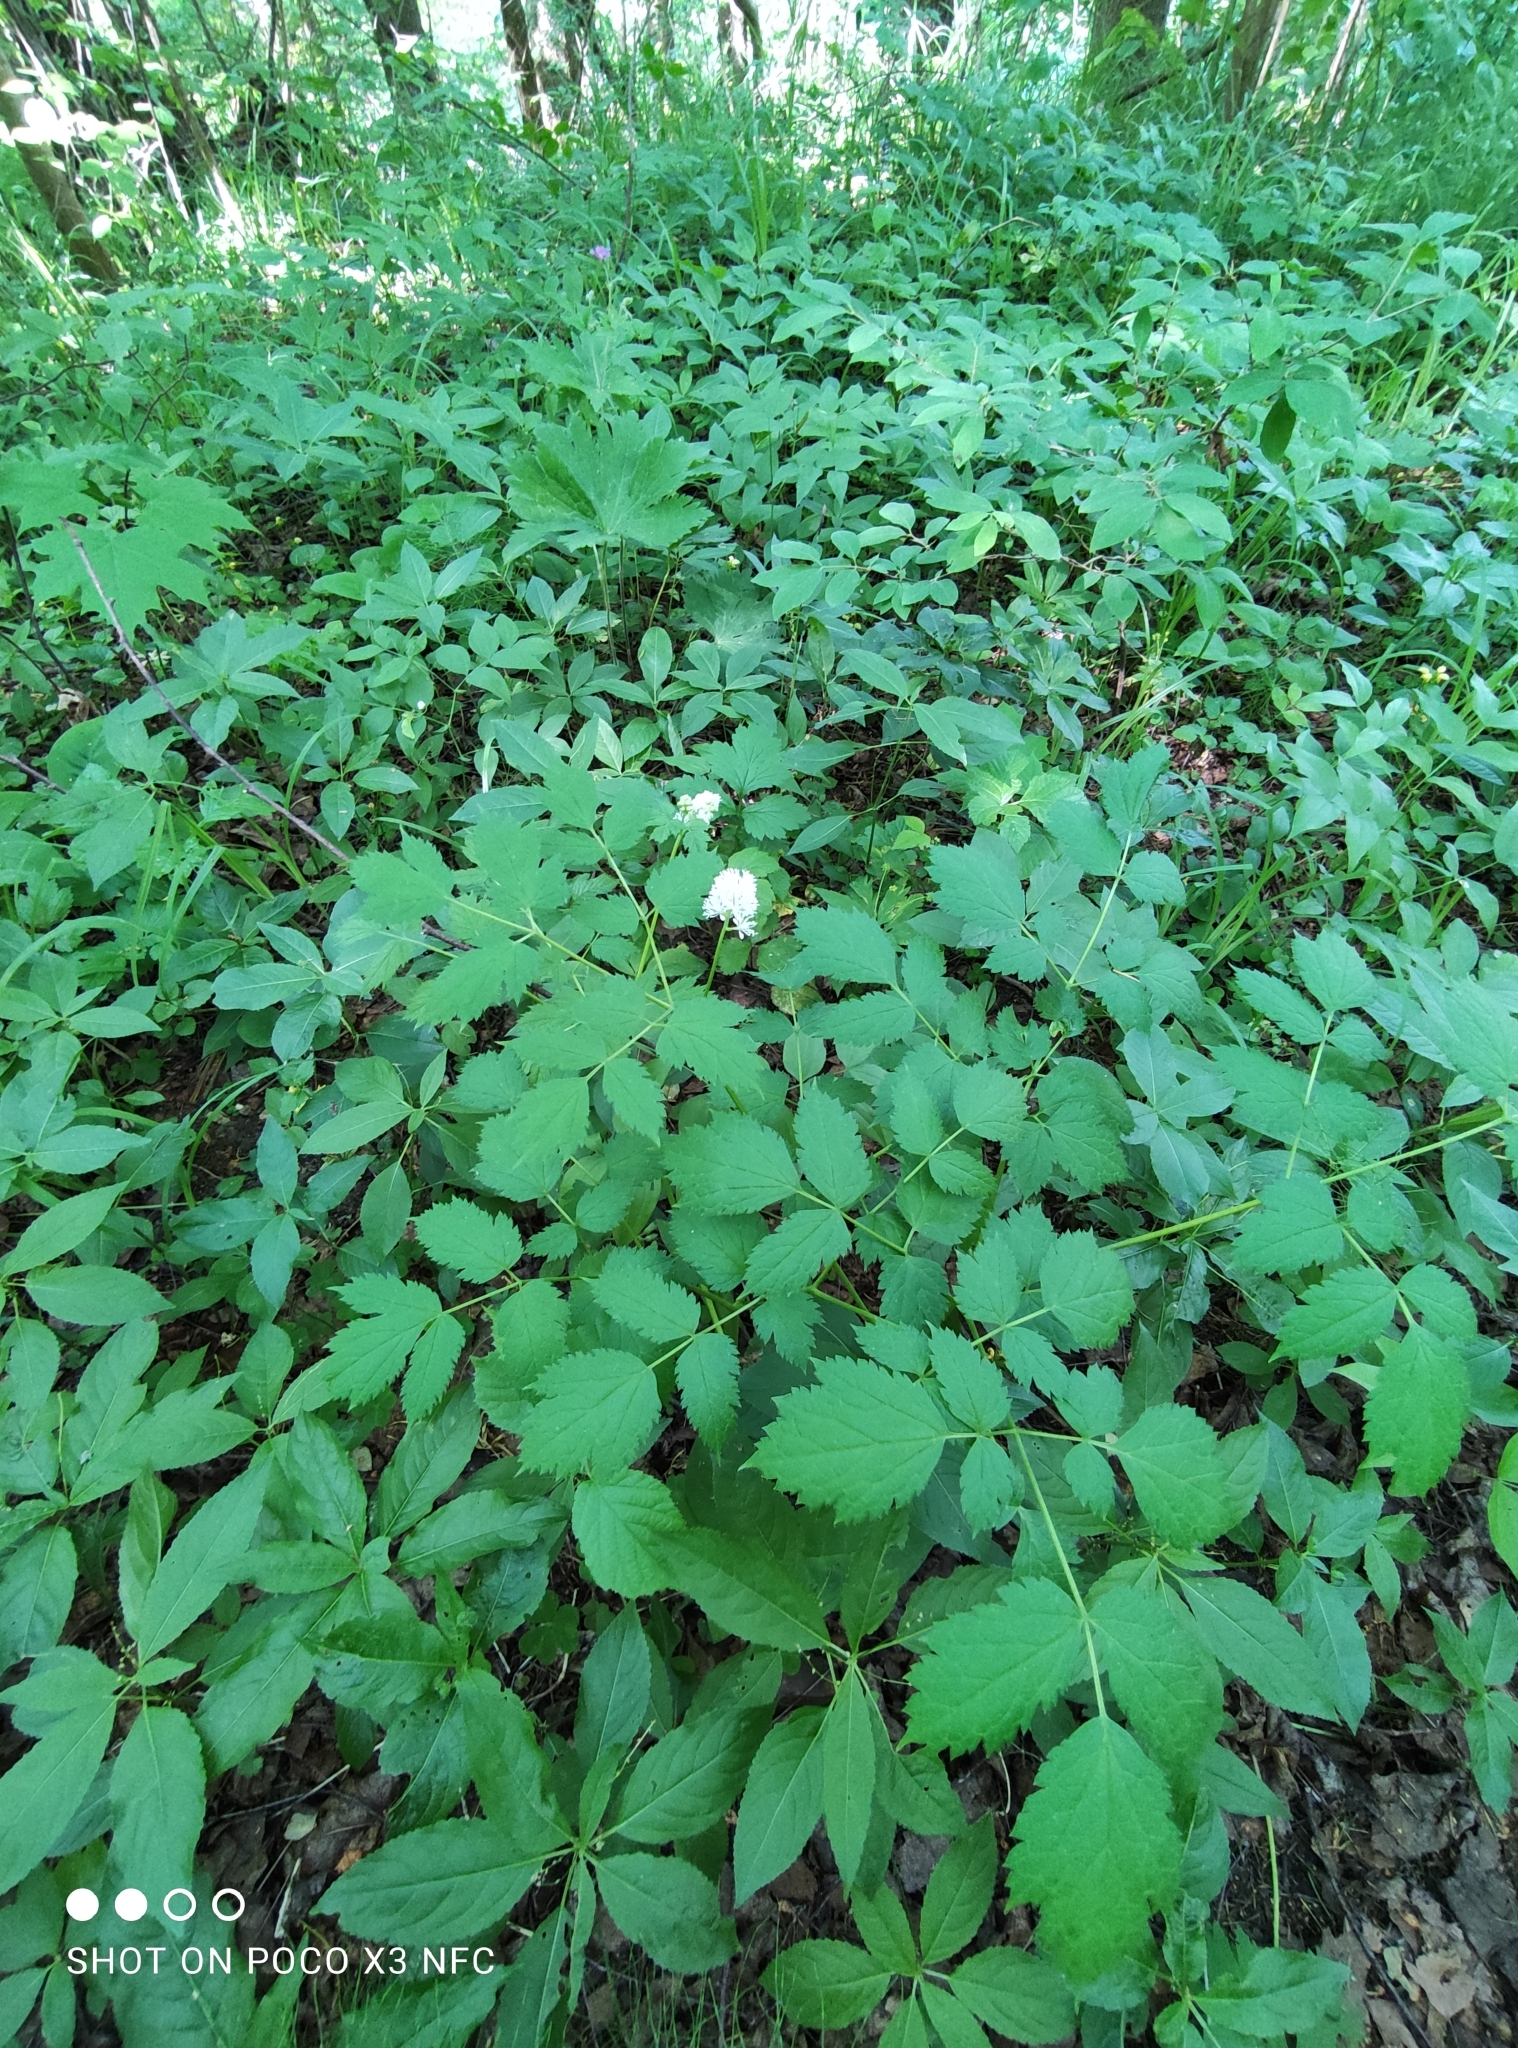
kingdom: Plantae
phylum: Tracheophyta
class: Magnoliopsida
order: Ranunculales
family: Ranunculaceae
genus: Actaea
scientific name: Actaea spicata
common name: Baneberry
